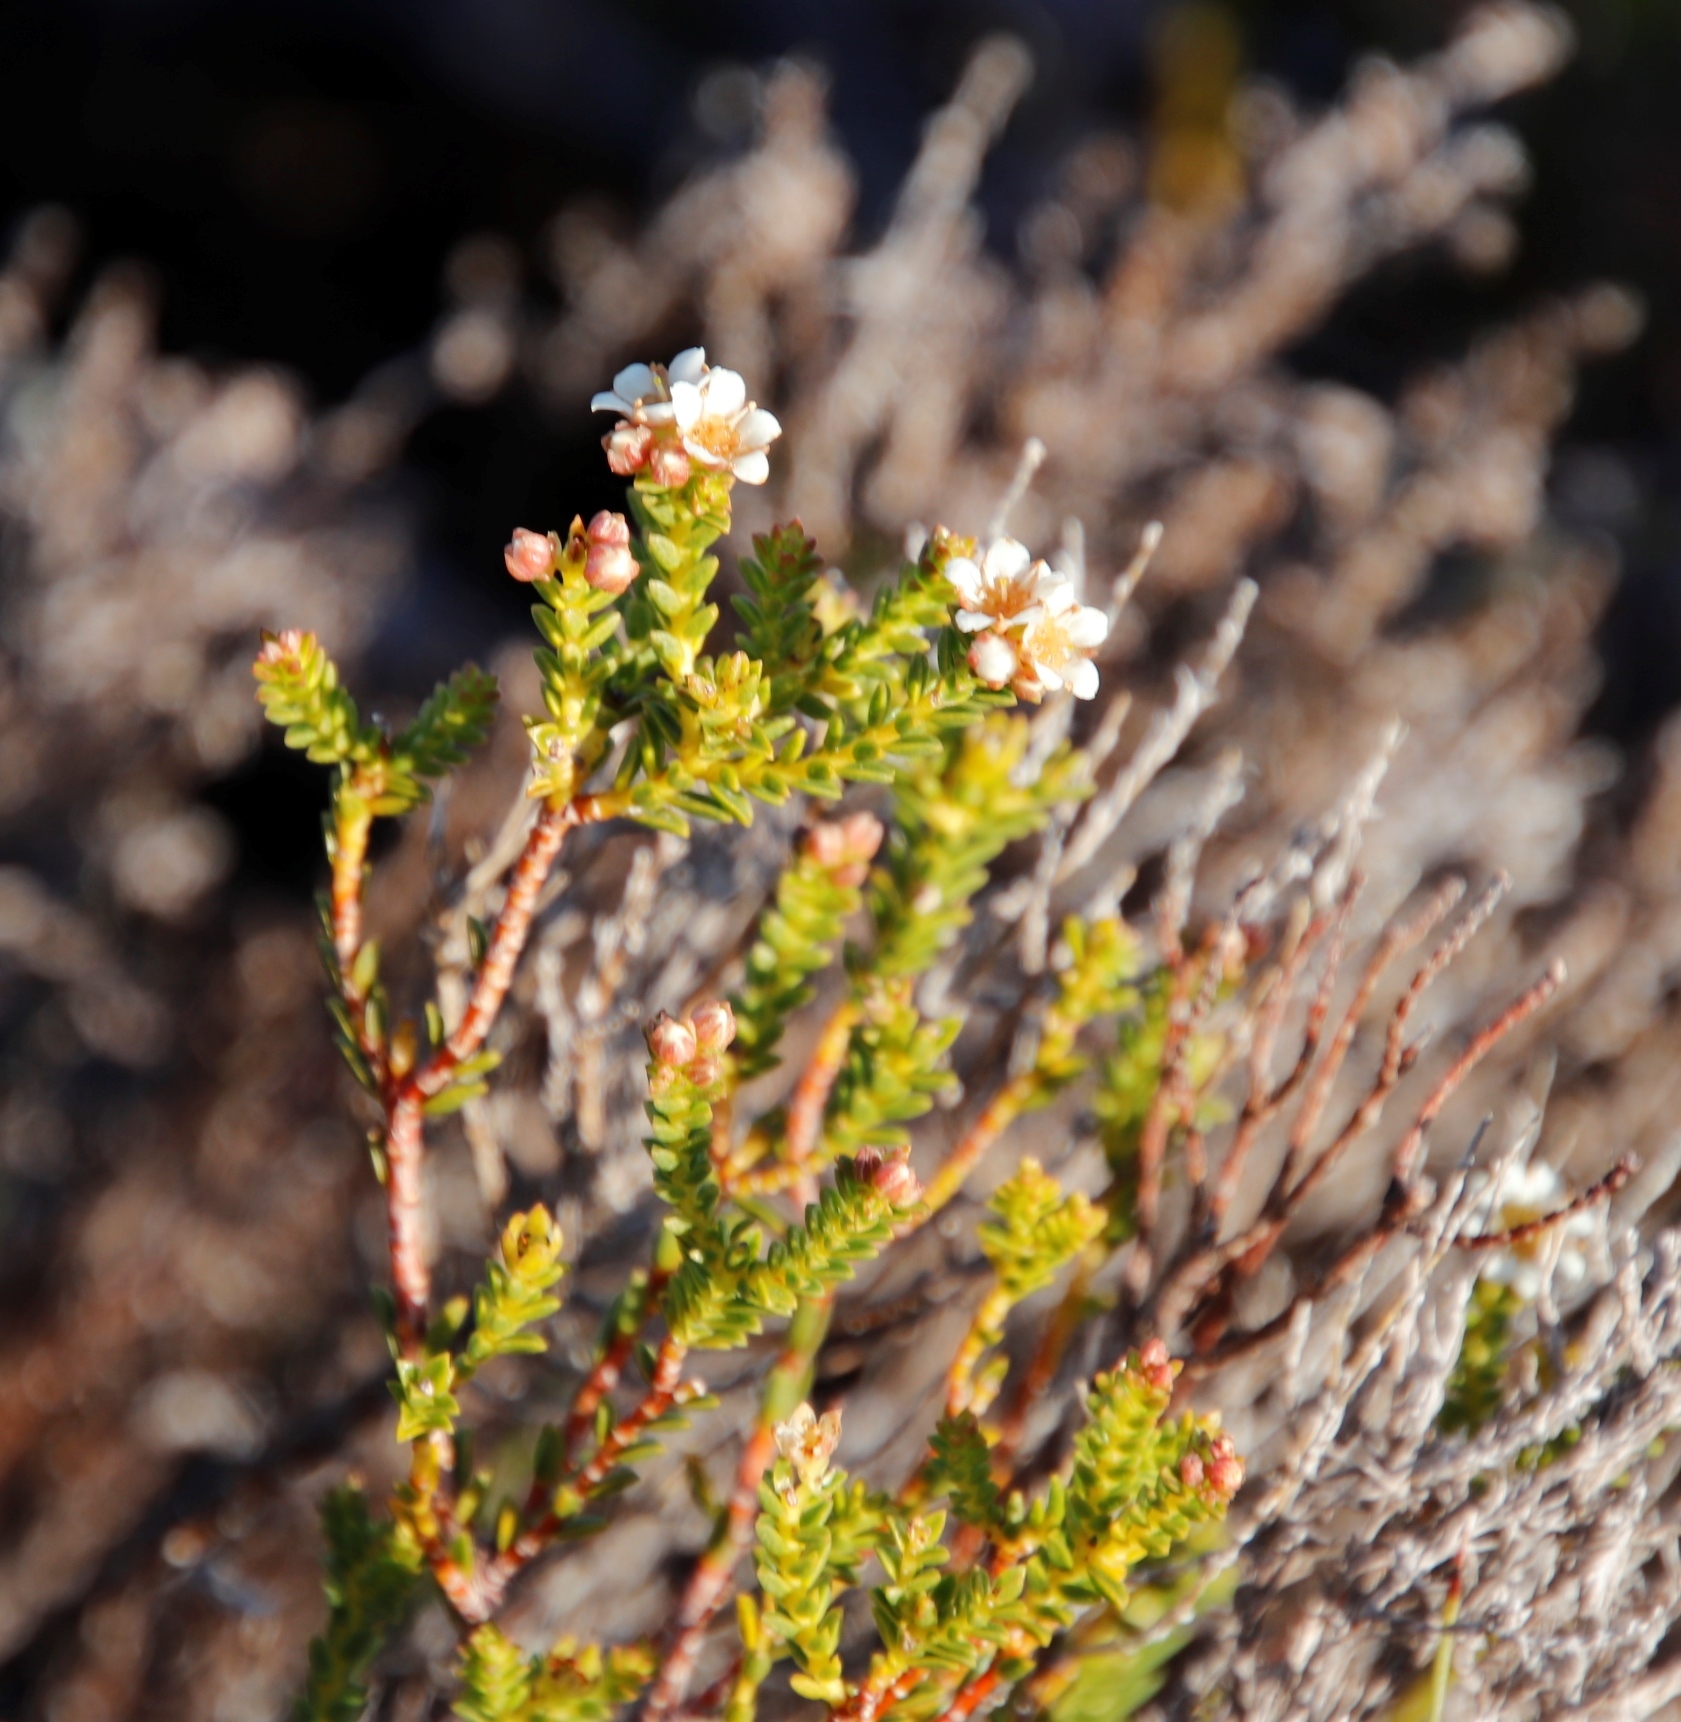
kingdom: Plantae
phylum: Tracheophyta
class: Magnoliopsida
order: Sapindales
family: Rutaceae
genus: Diosma
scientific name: Diosma oppositifolia
